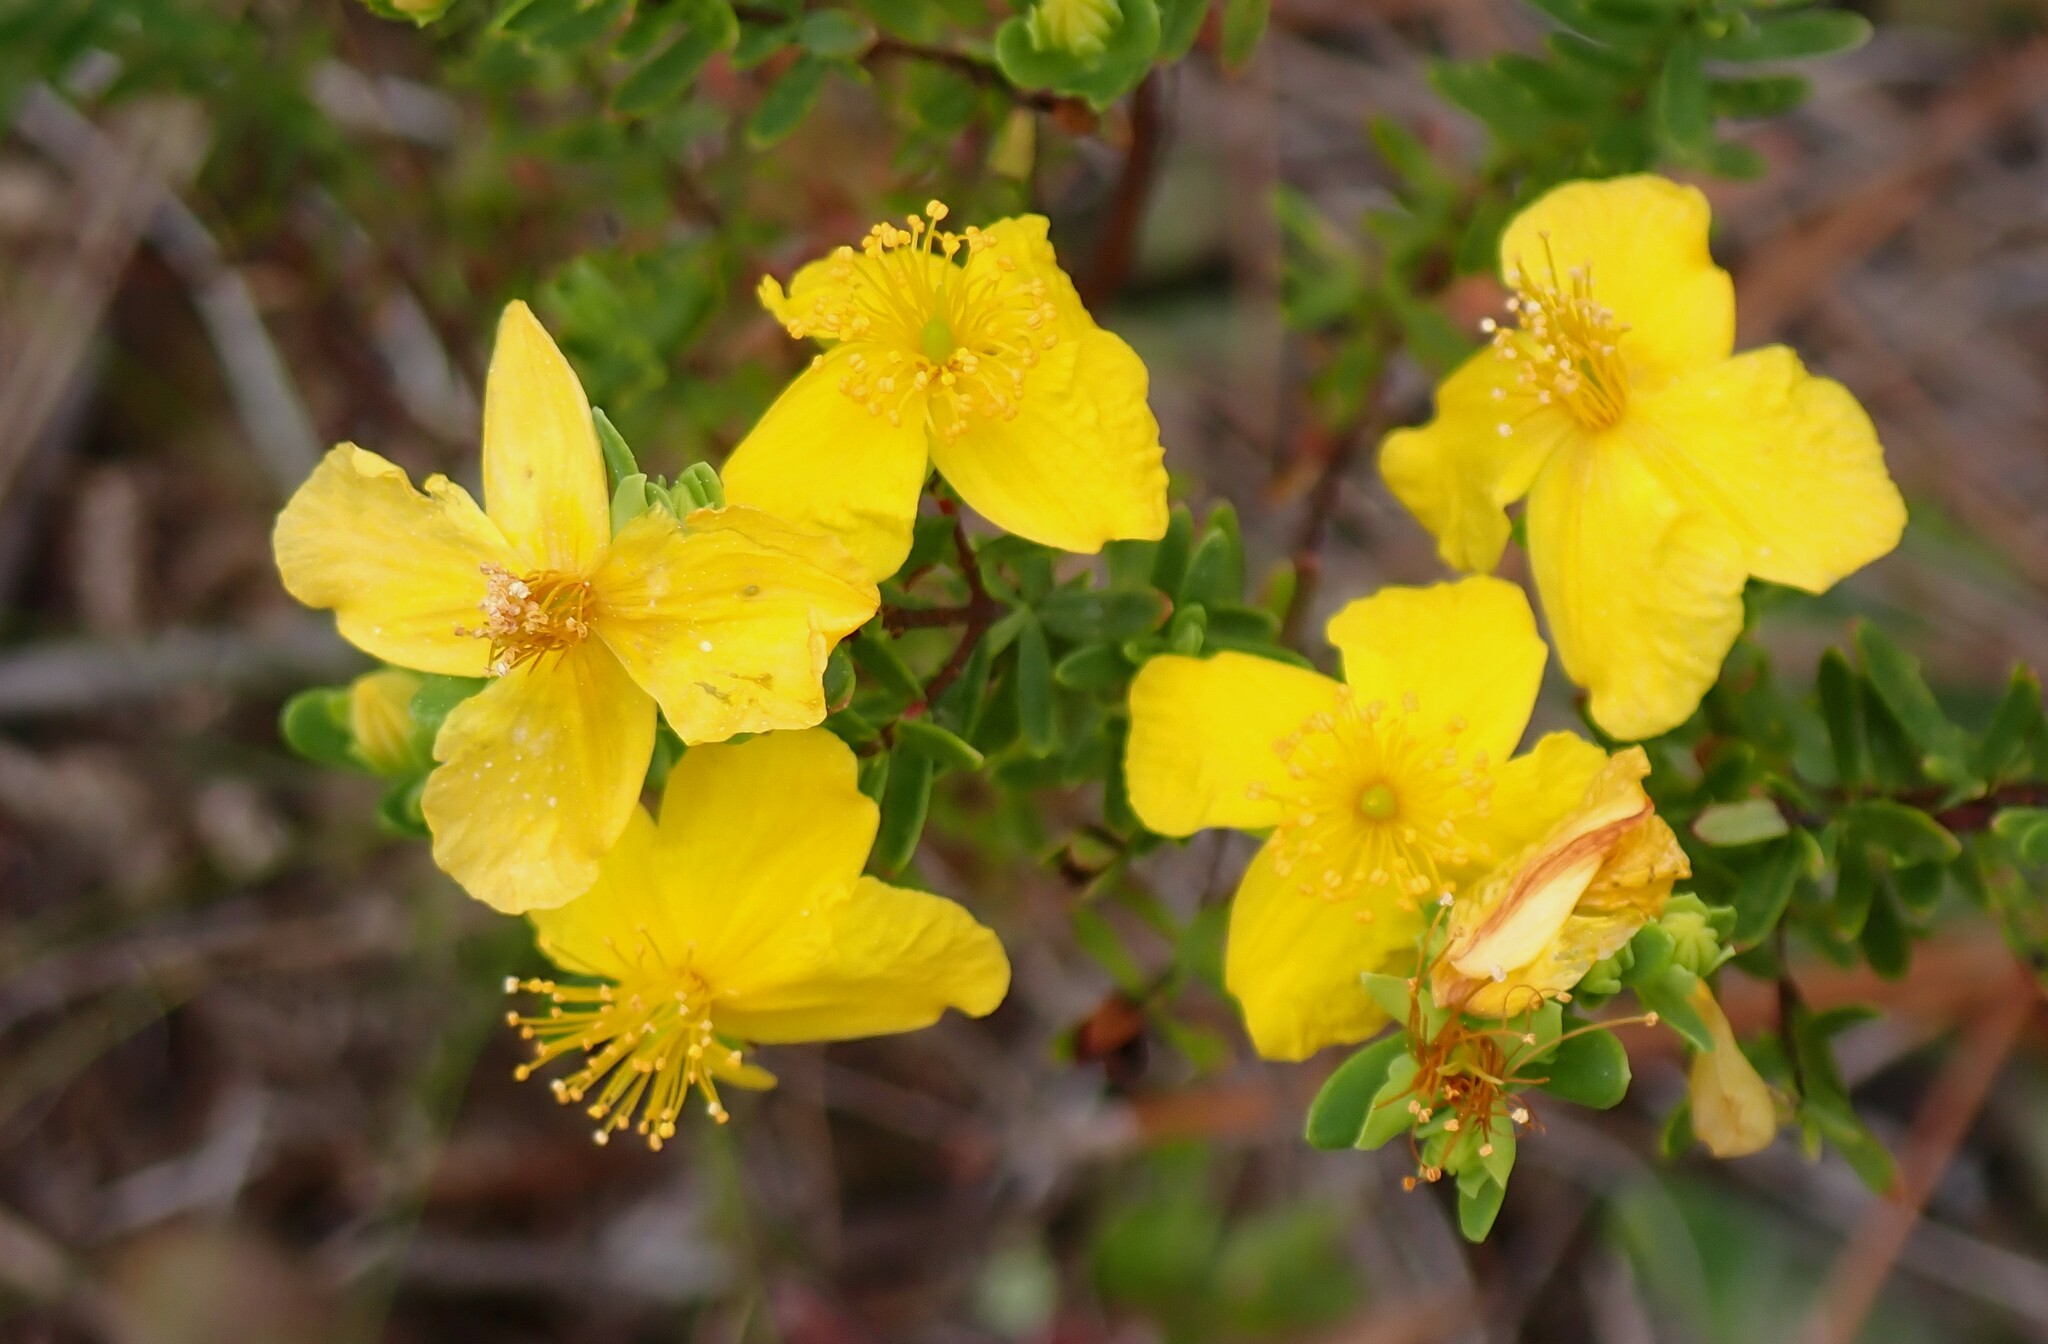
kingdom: Plantae
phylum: Tracheophyta
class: Magnoliopsida
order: Malpighiales
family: Hypericaceae
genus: Hypericum
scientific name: Hypericum microsepalum
